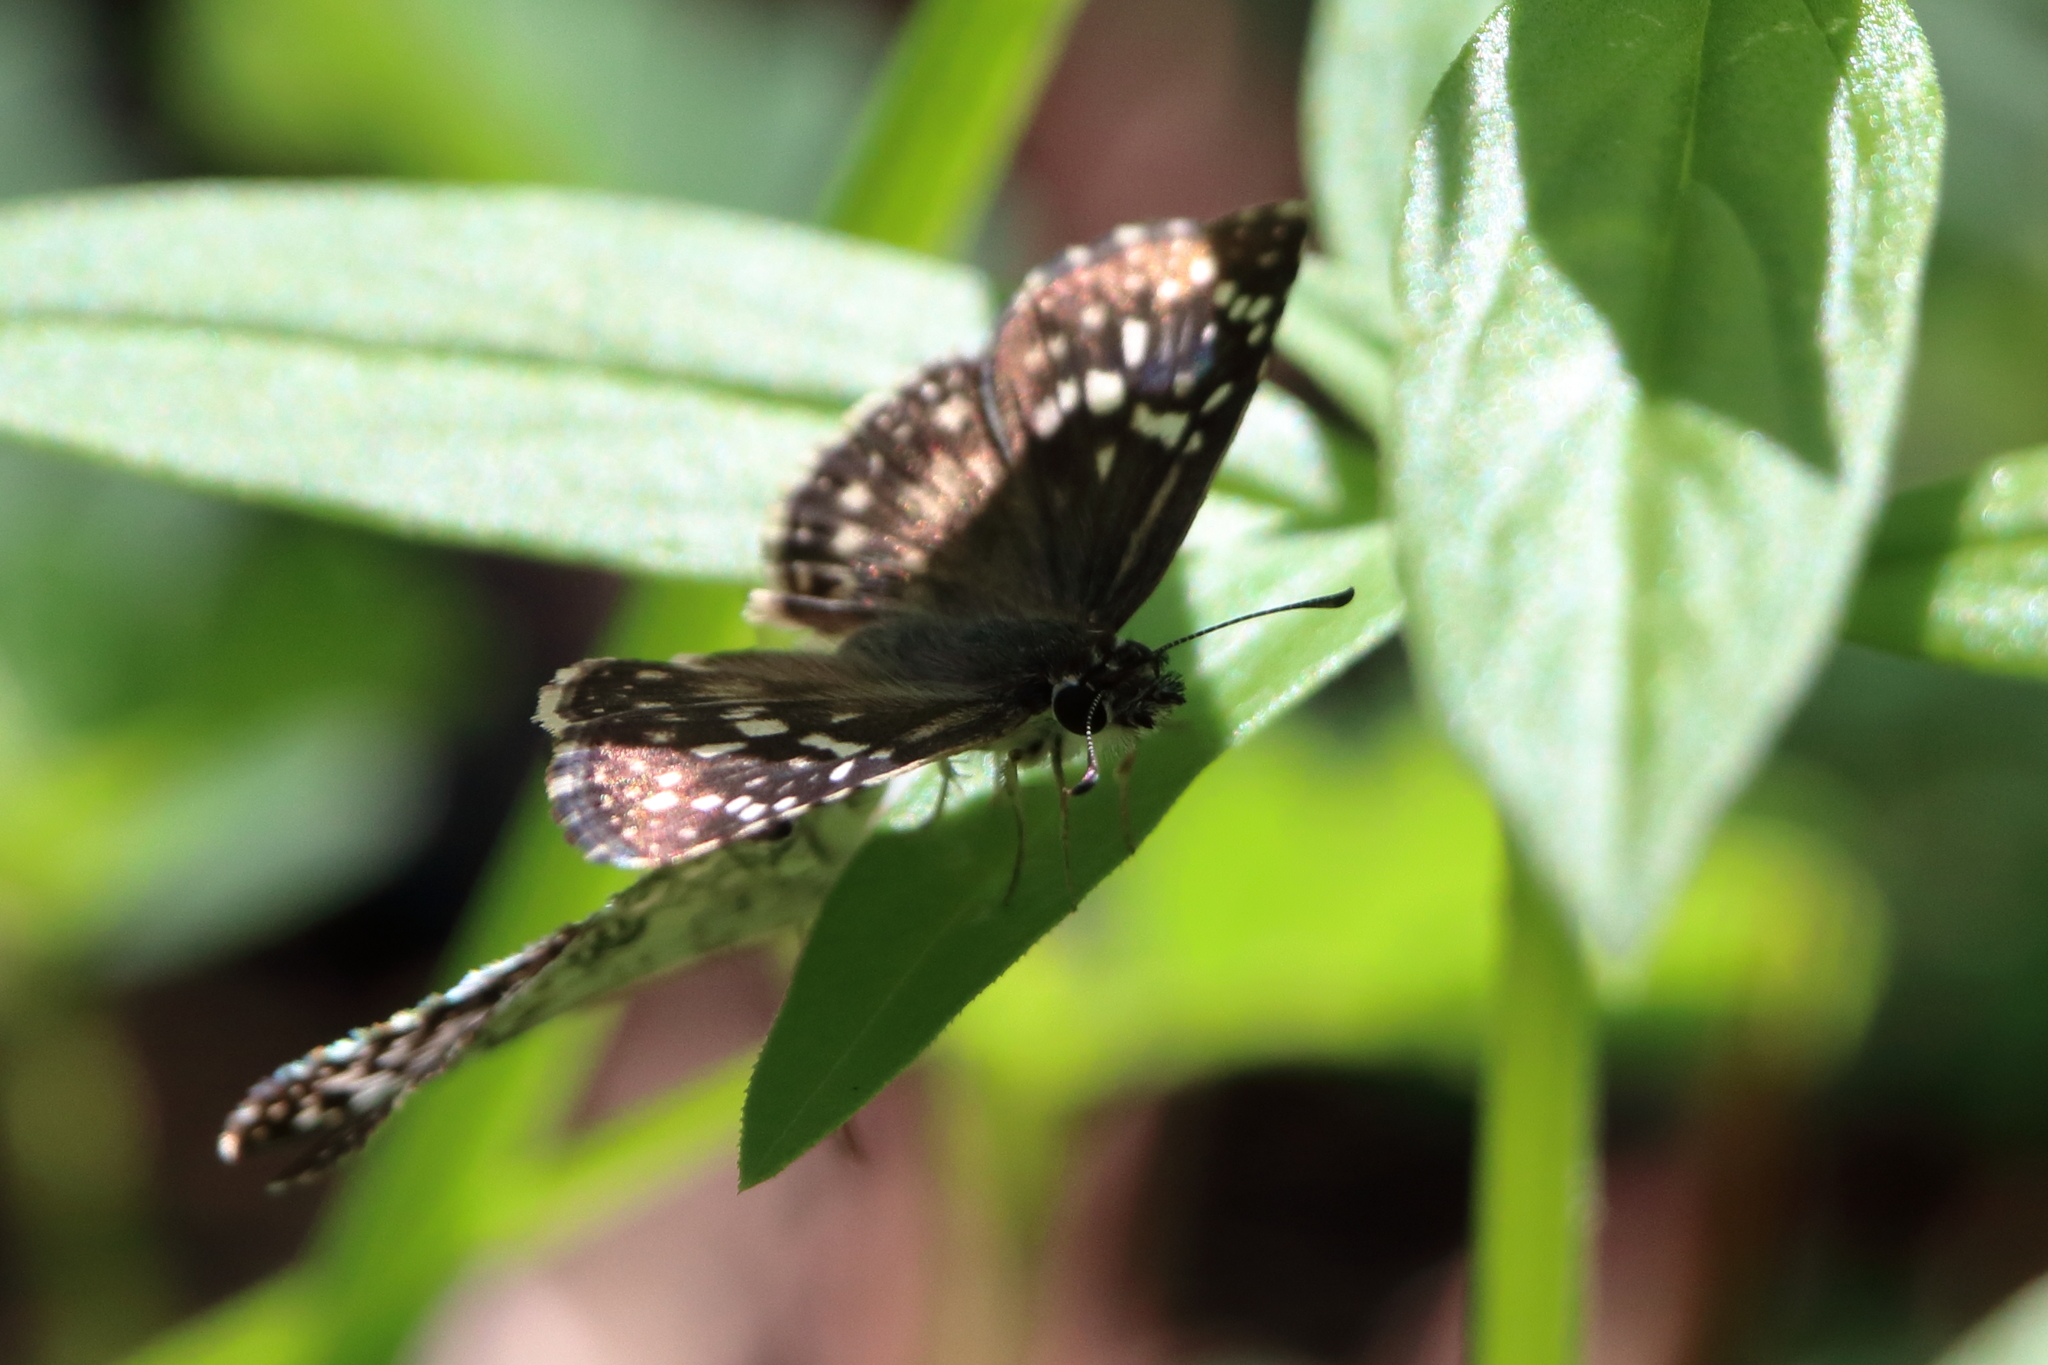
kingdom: Animalia
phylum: Arthropoda
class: Insecta
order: Lepidoptera
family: Hesperiidae
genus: Pyrgus
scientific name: Pyrgus oileus
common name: Tropical checkered-skipper
